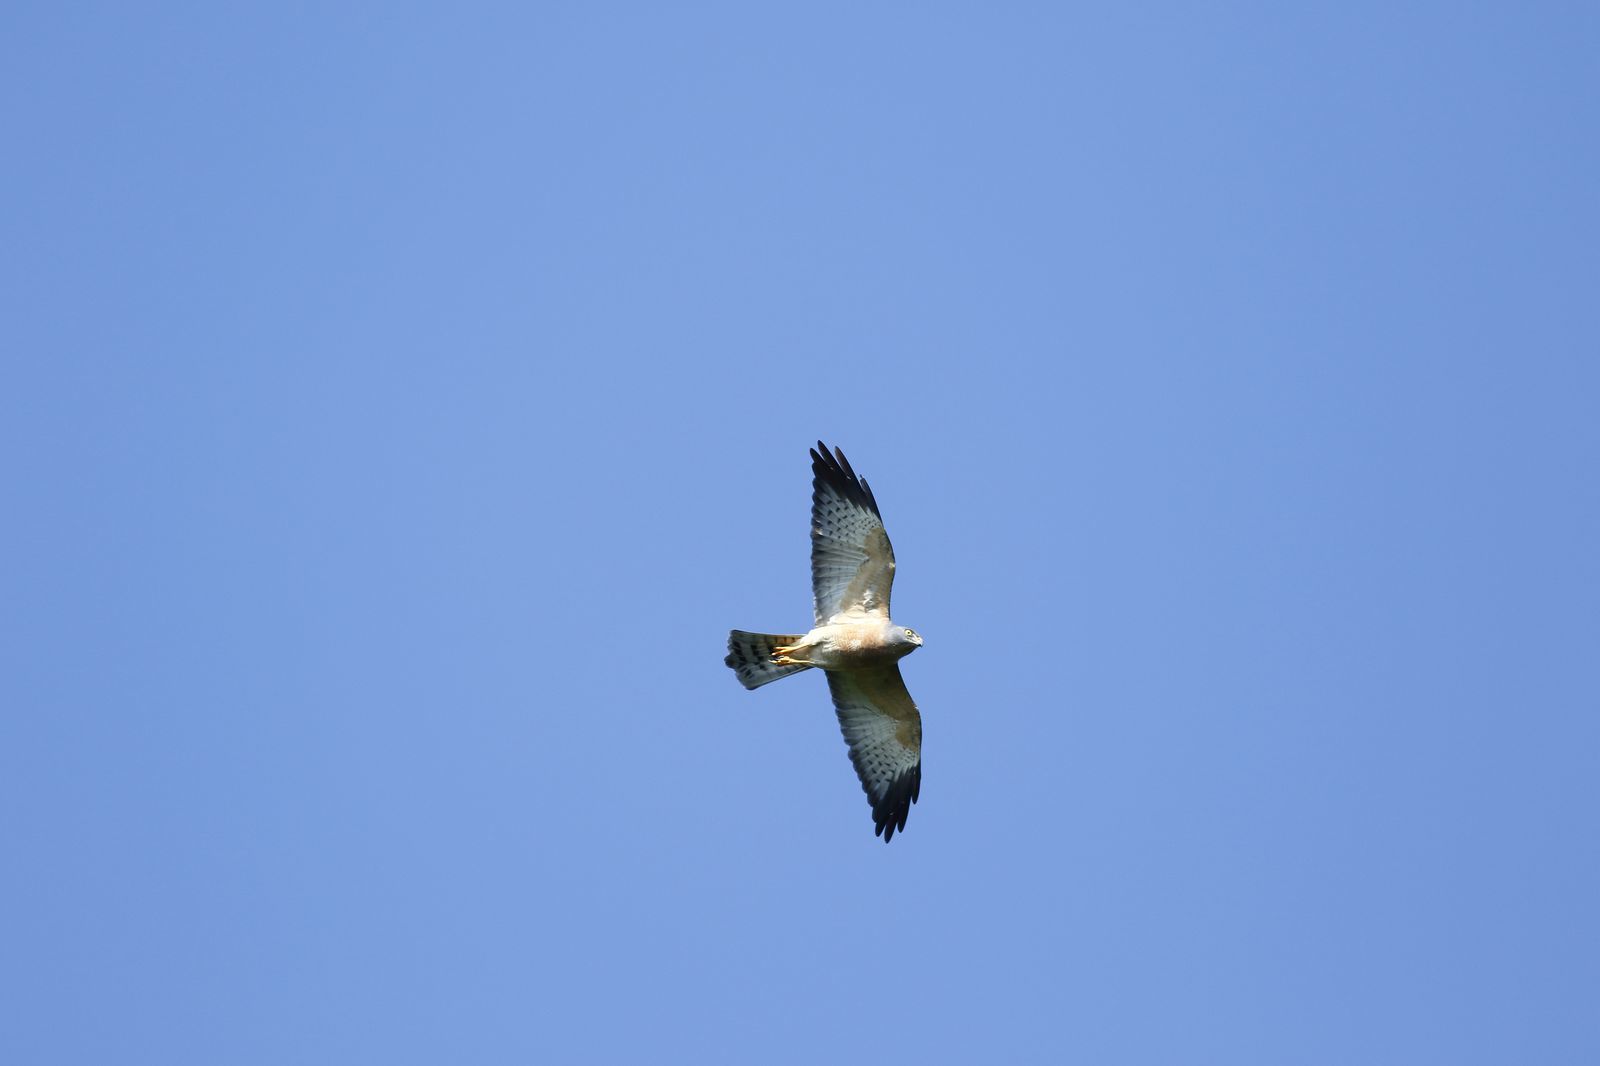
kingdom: Animalia
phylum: Chordata
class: Aves
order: Accipitriformes
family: Accipitridae
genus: Accipiter
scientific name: Accipiter soloensis
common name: Chinese sparrowhawk
